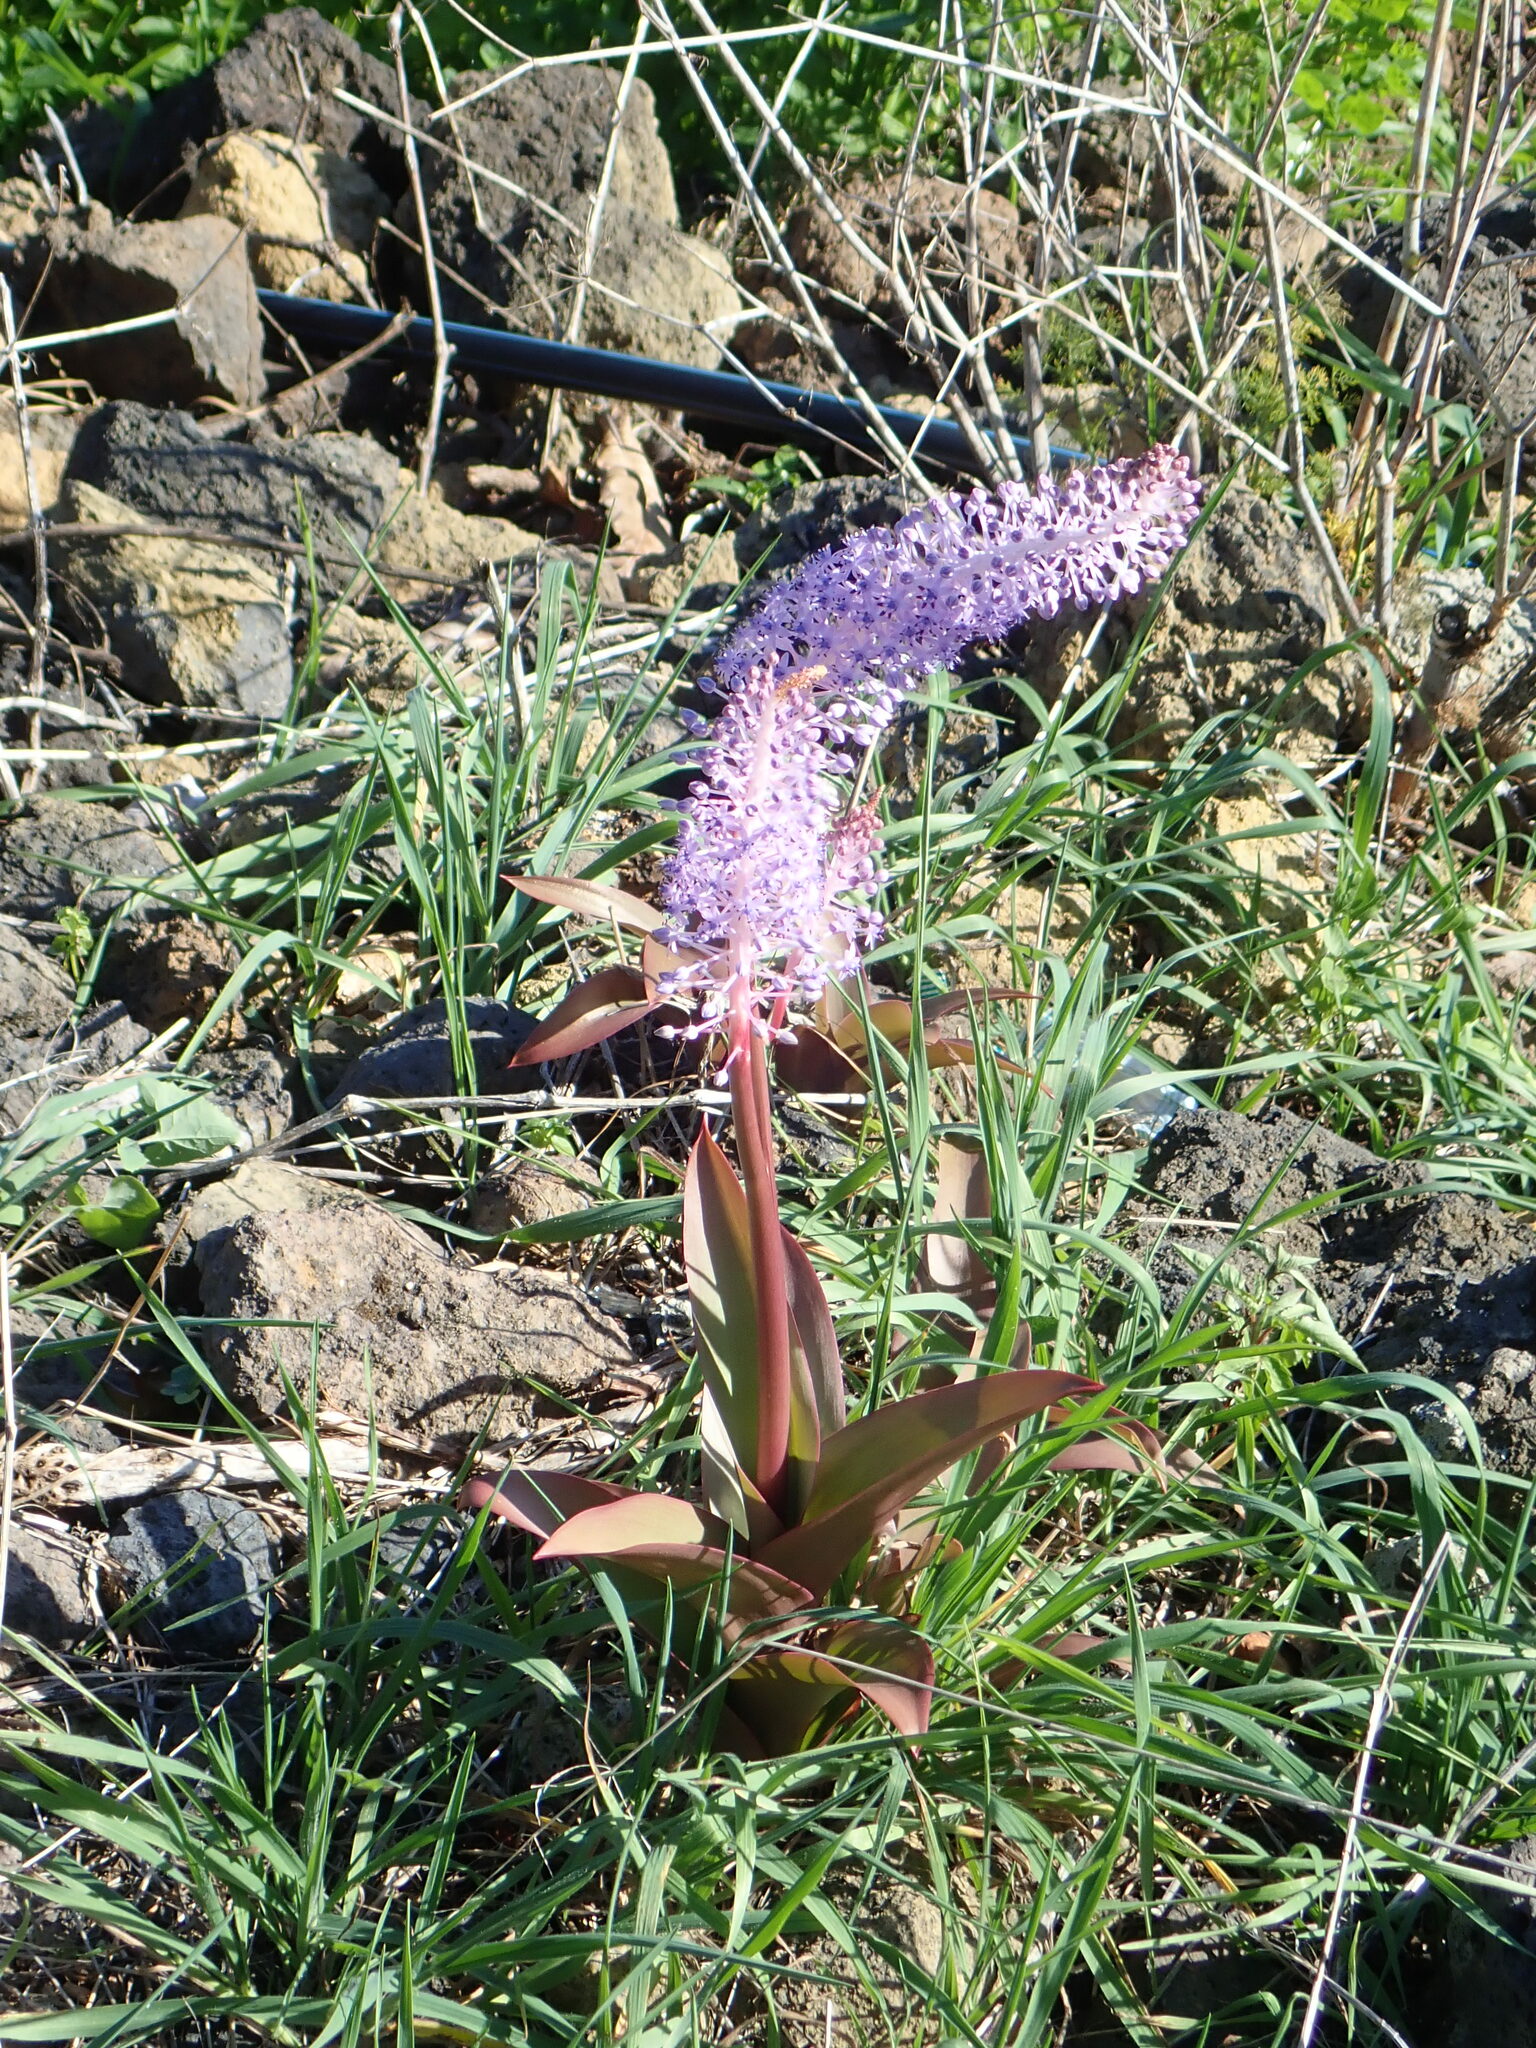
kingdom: Plantae
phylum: Tracheophyta
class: Liliopsida
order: Asparagales
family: Asparagaceae
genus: Scilla
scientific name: Scilla latifolia
